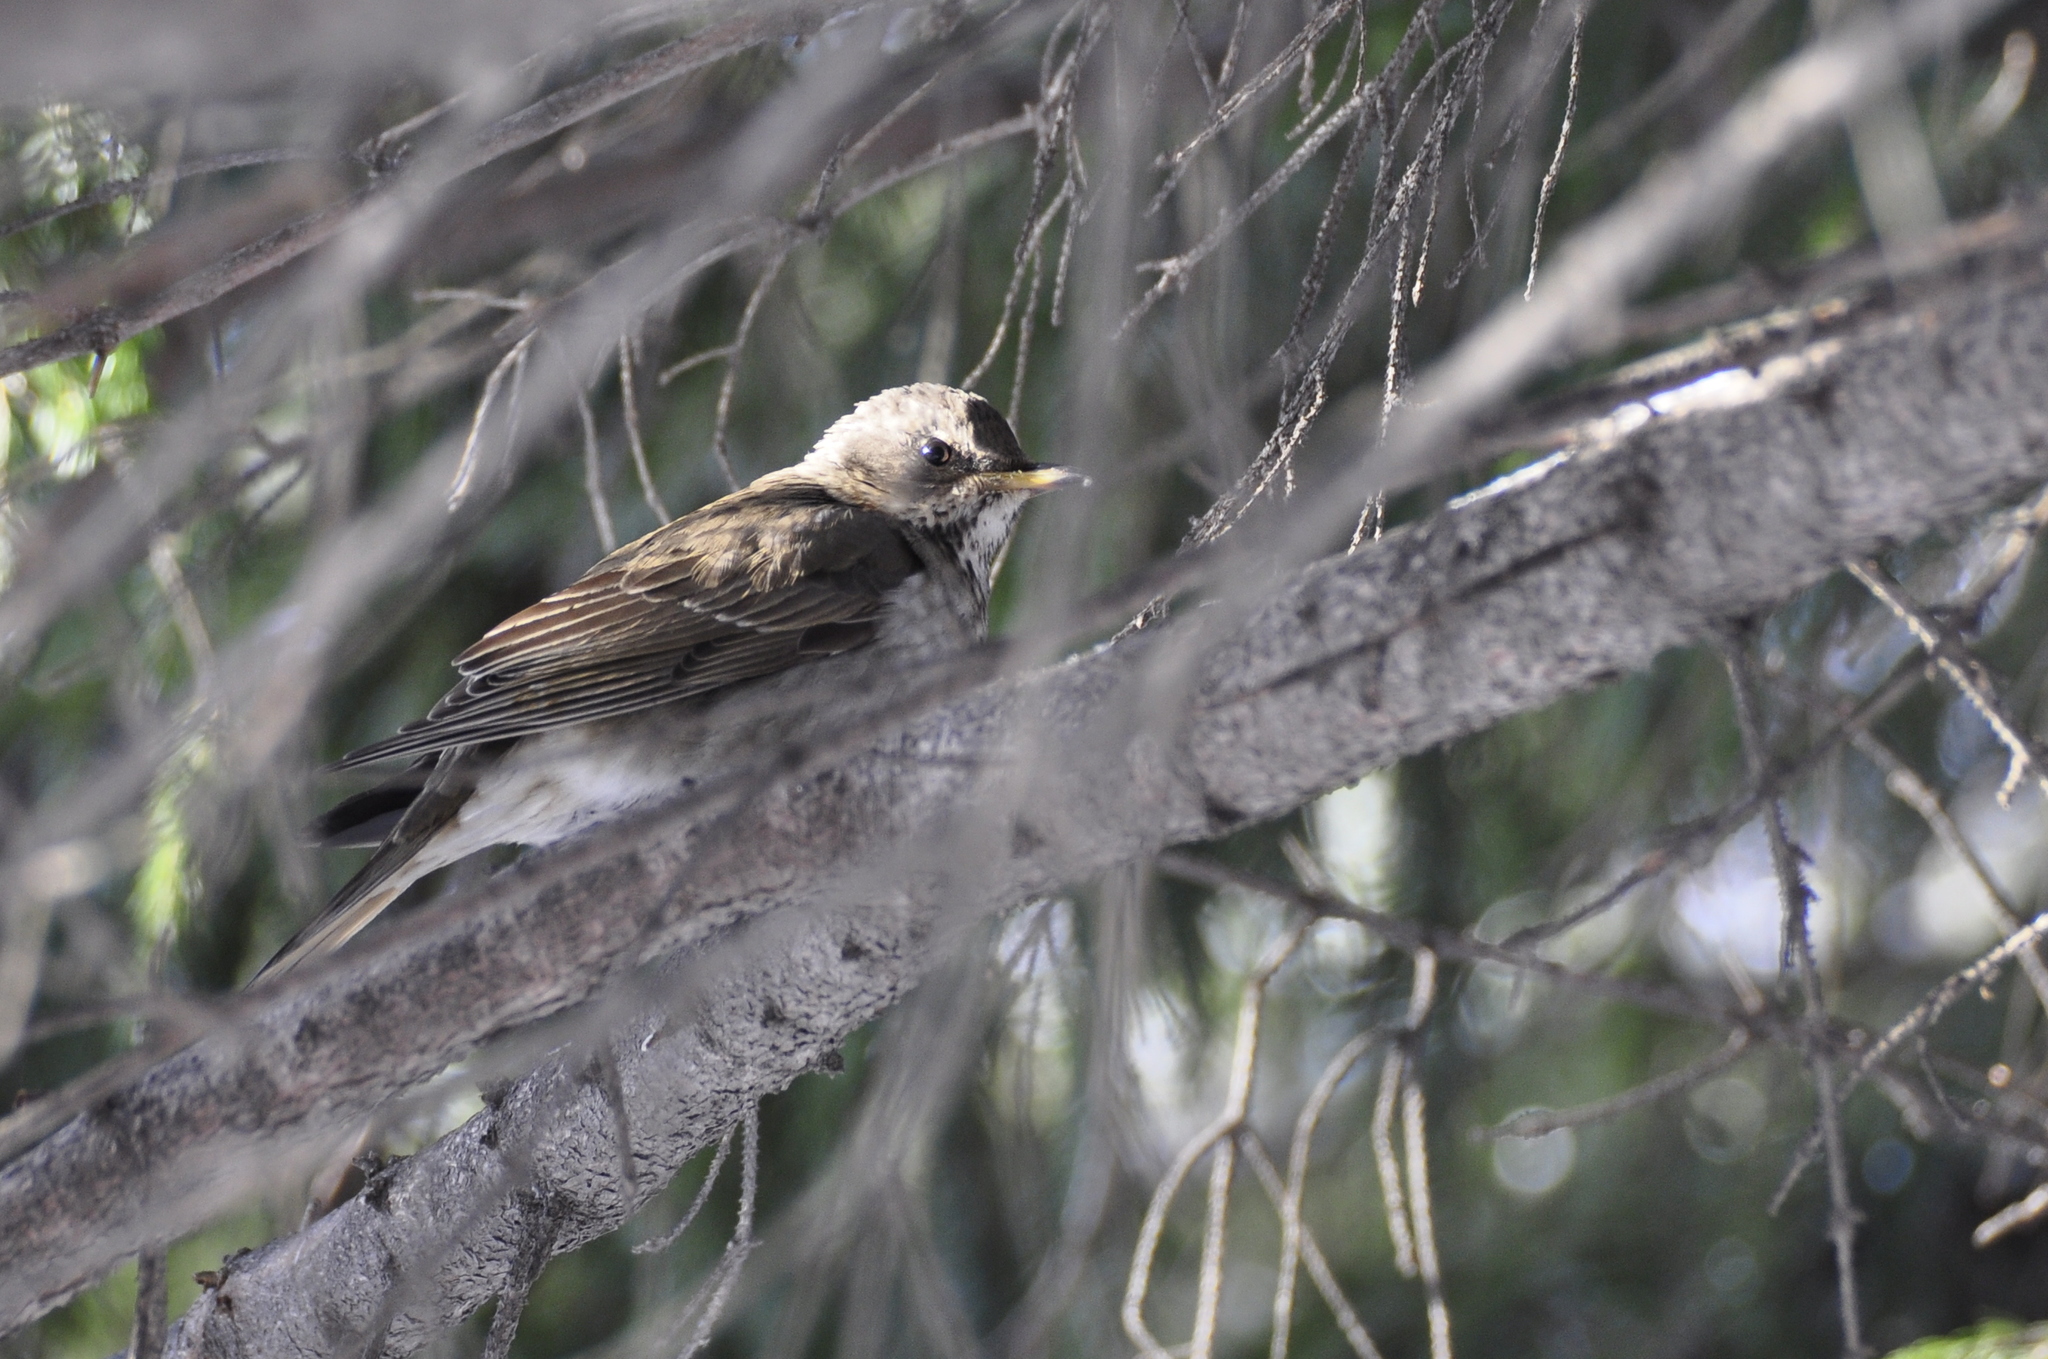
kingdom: Animalia
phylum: Chordata
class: Aves
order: Passeriformes
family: Turdidae
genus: Turdus
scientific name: Turdus pilaris
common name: Fieldfare
